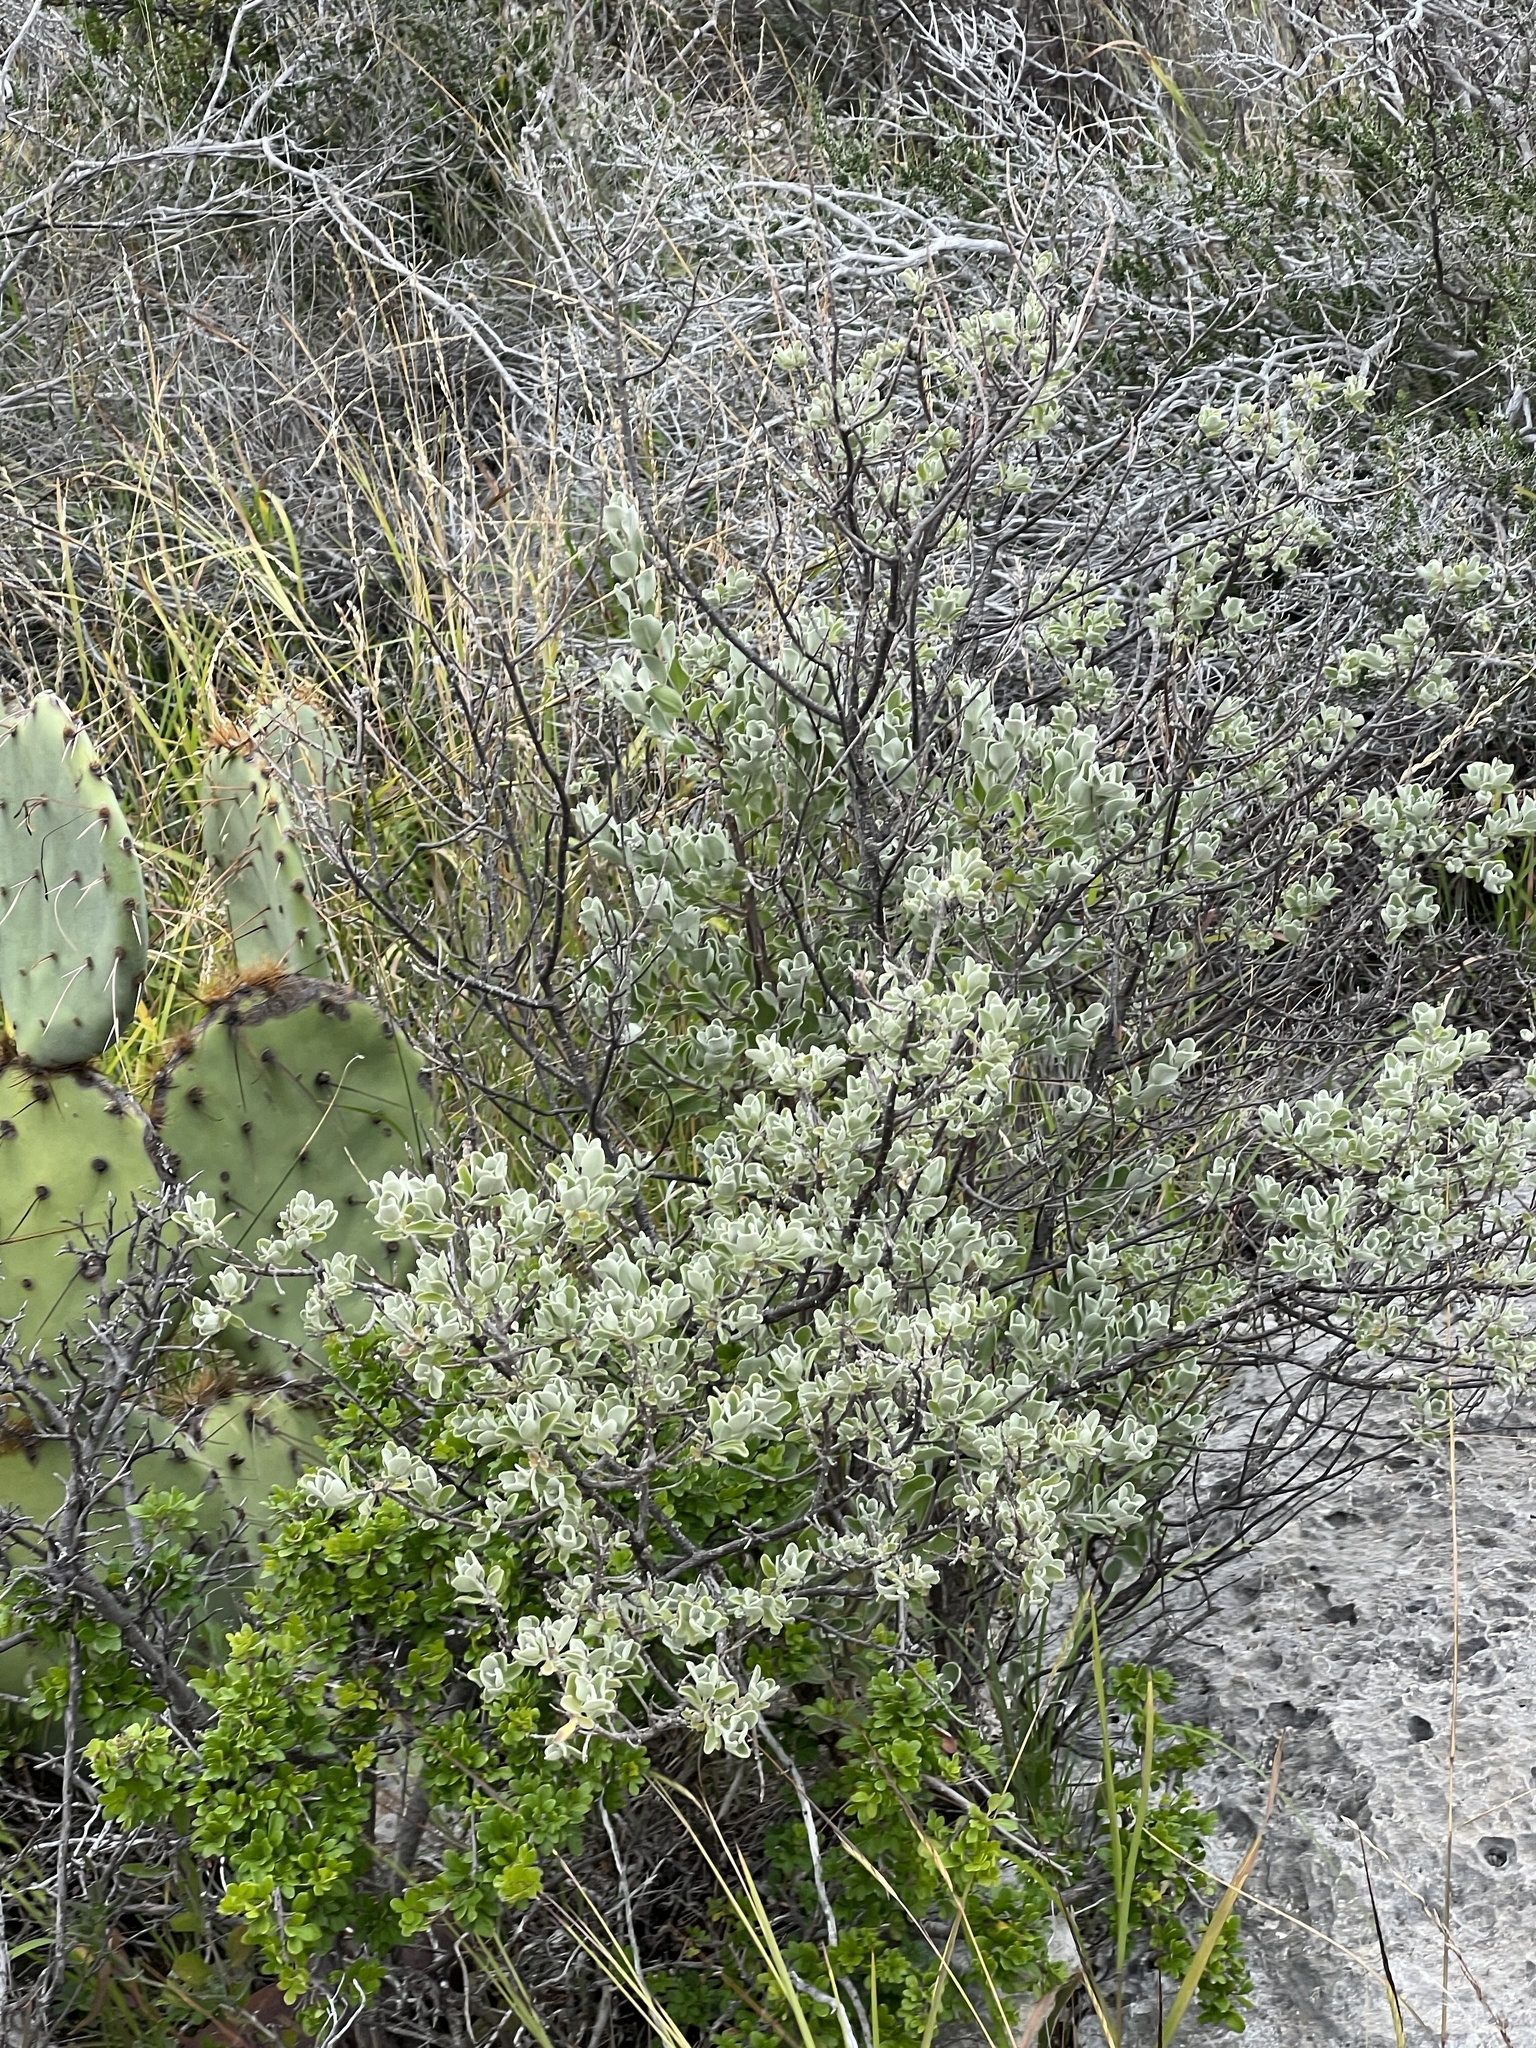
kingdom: Plantae
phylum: Tracheophyta
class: Magnoliopsida
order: Lamiales
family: Scrophulariaceae
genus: Leucophyllum
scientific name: Leucophyllum frutescens
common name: Texas silverleaf
